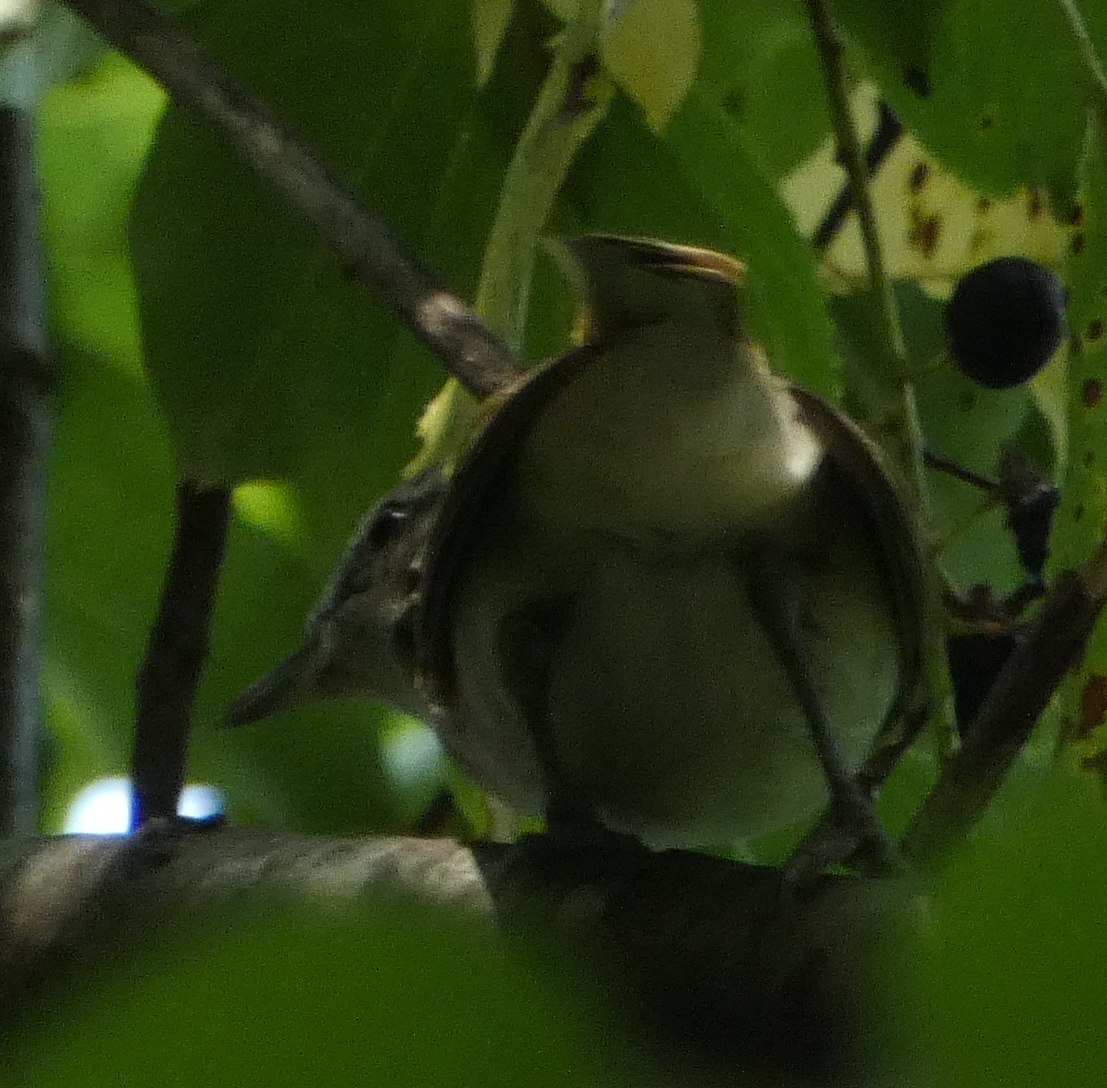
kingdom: Animalia
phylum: Chordata
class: Aves
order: Passeriformes
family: Vireonidae
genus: Vireo
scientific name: Vireo olivaceus
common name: Red-eyed vireo
